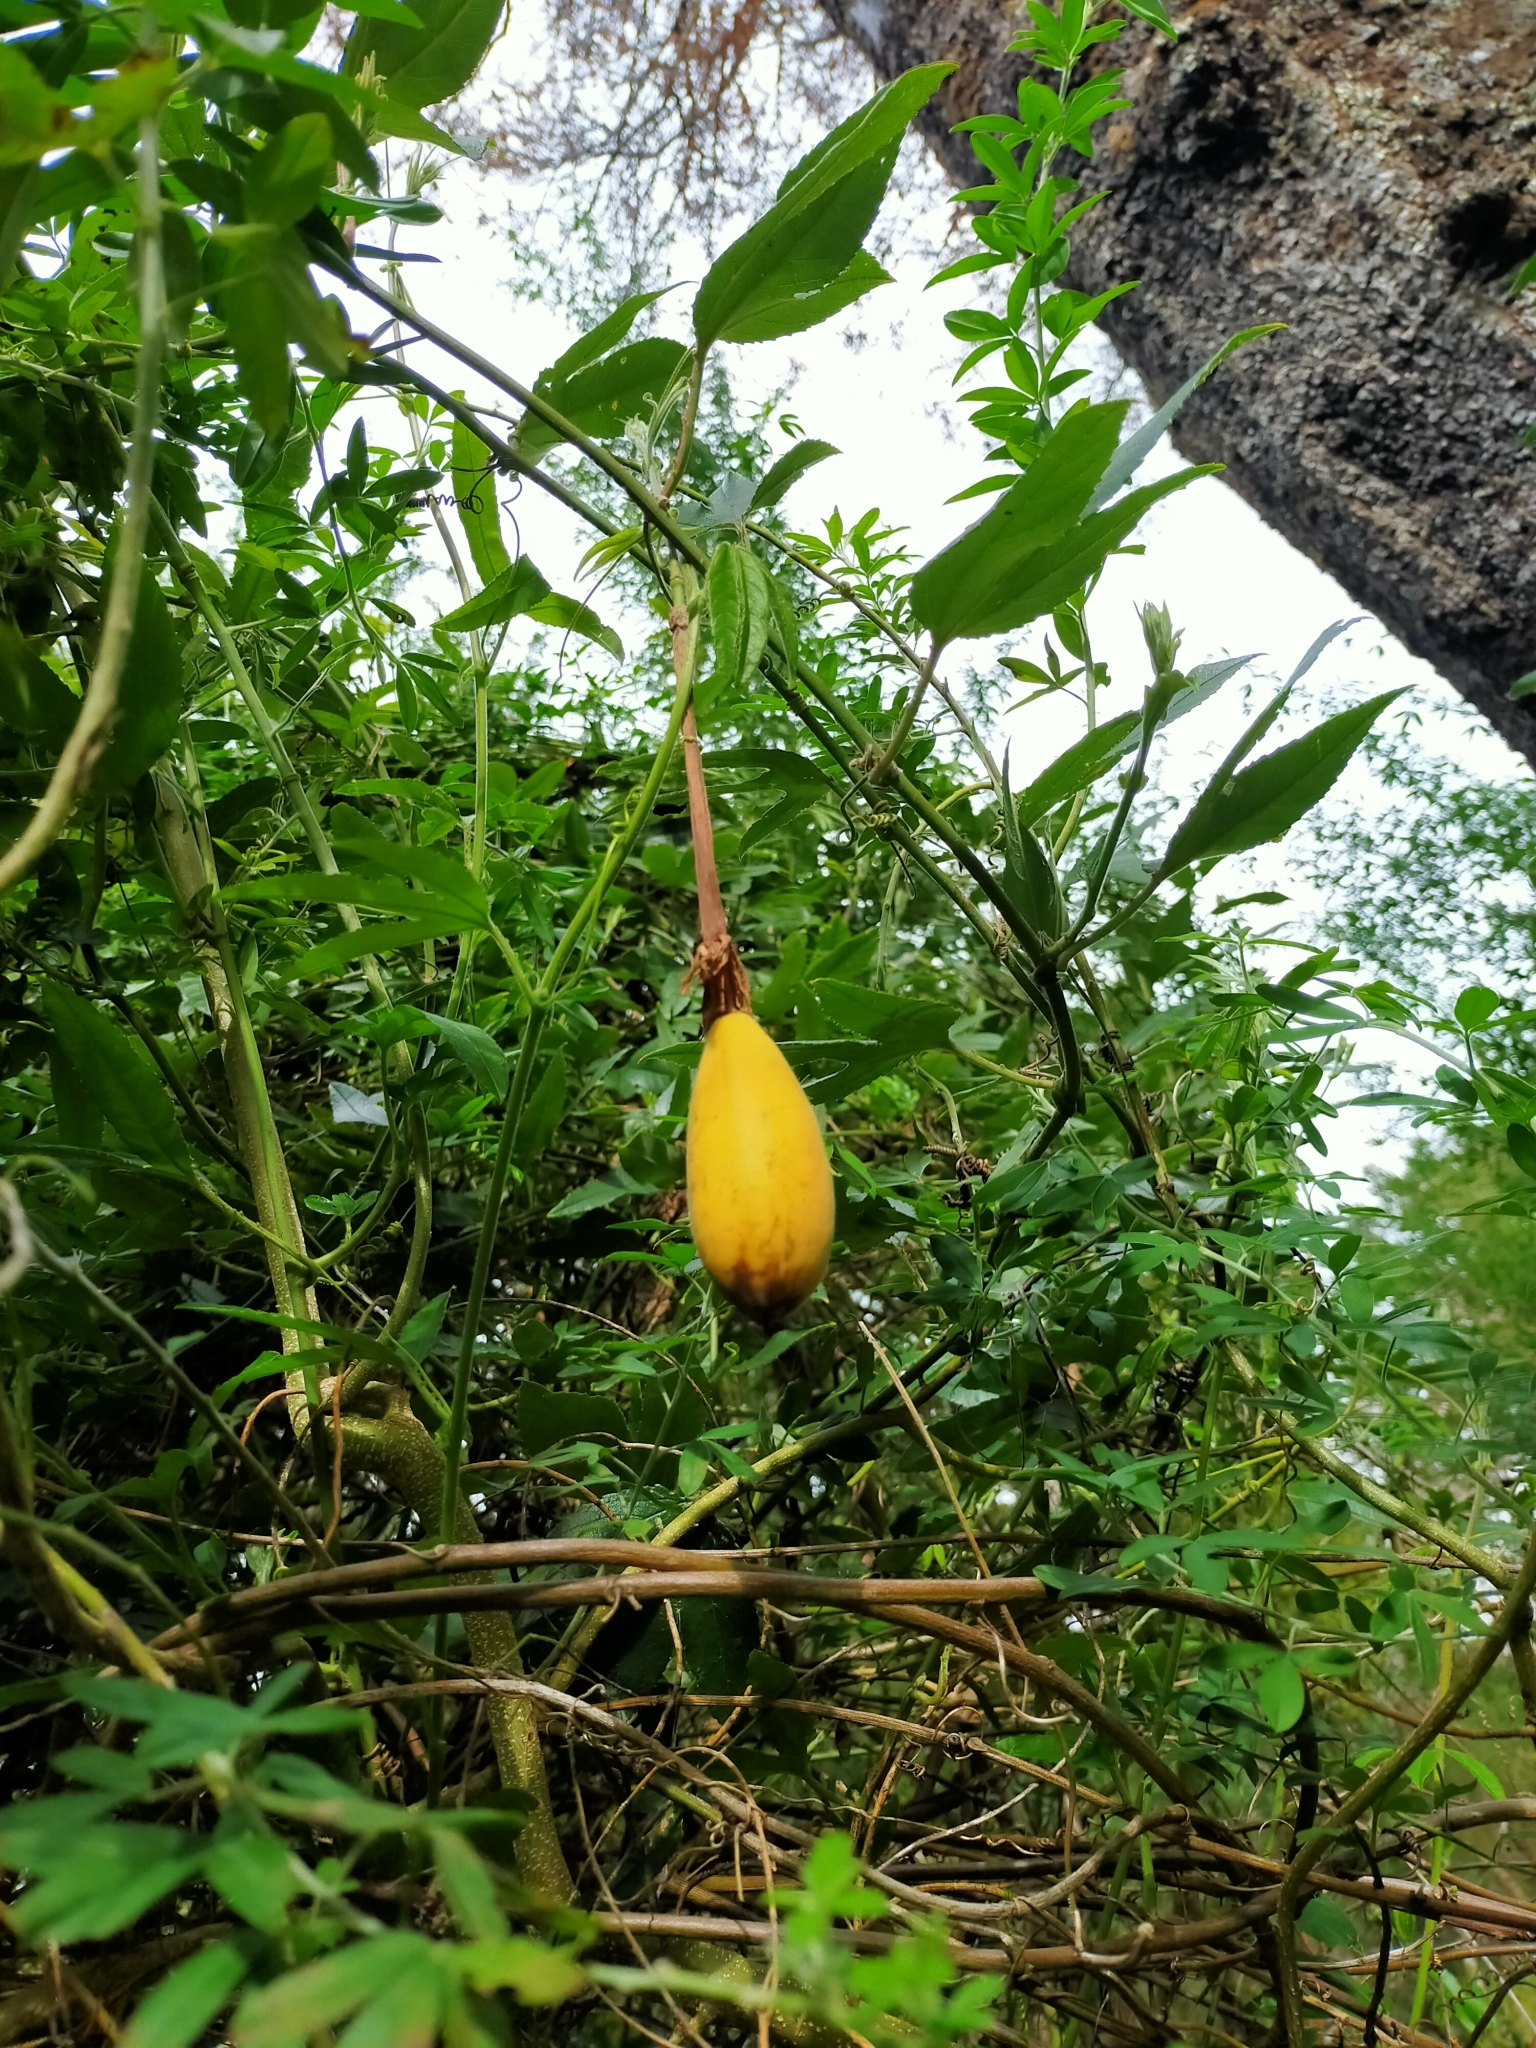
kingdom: Plantae
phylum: Tracheophyta
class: Magnoliopsida
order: Malpighiales
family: Passifloraceae
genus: Passiflora
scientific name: Passiflora tripartita
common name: Banana poka
